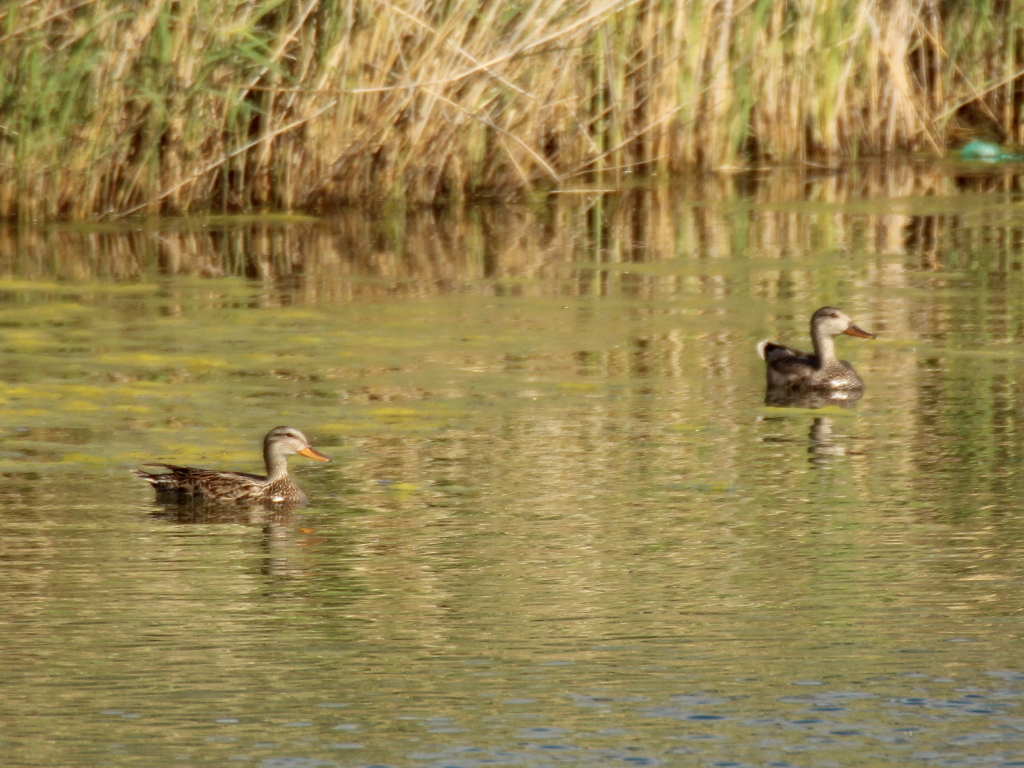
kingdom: Animalia
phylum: Chordata
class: Aves
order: Anseriformes
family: Anatidae
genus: Mareca
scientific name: Mareca strepera
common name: Gadwall
